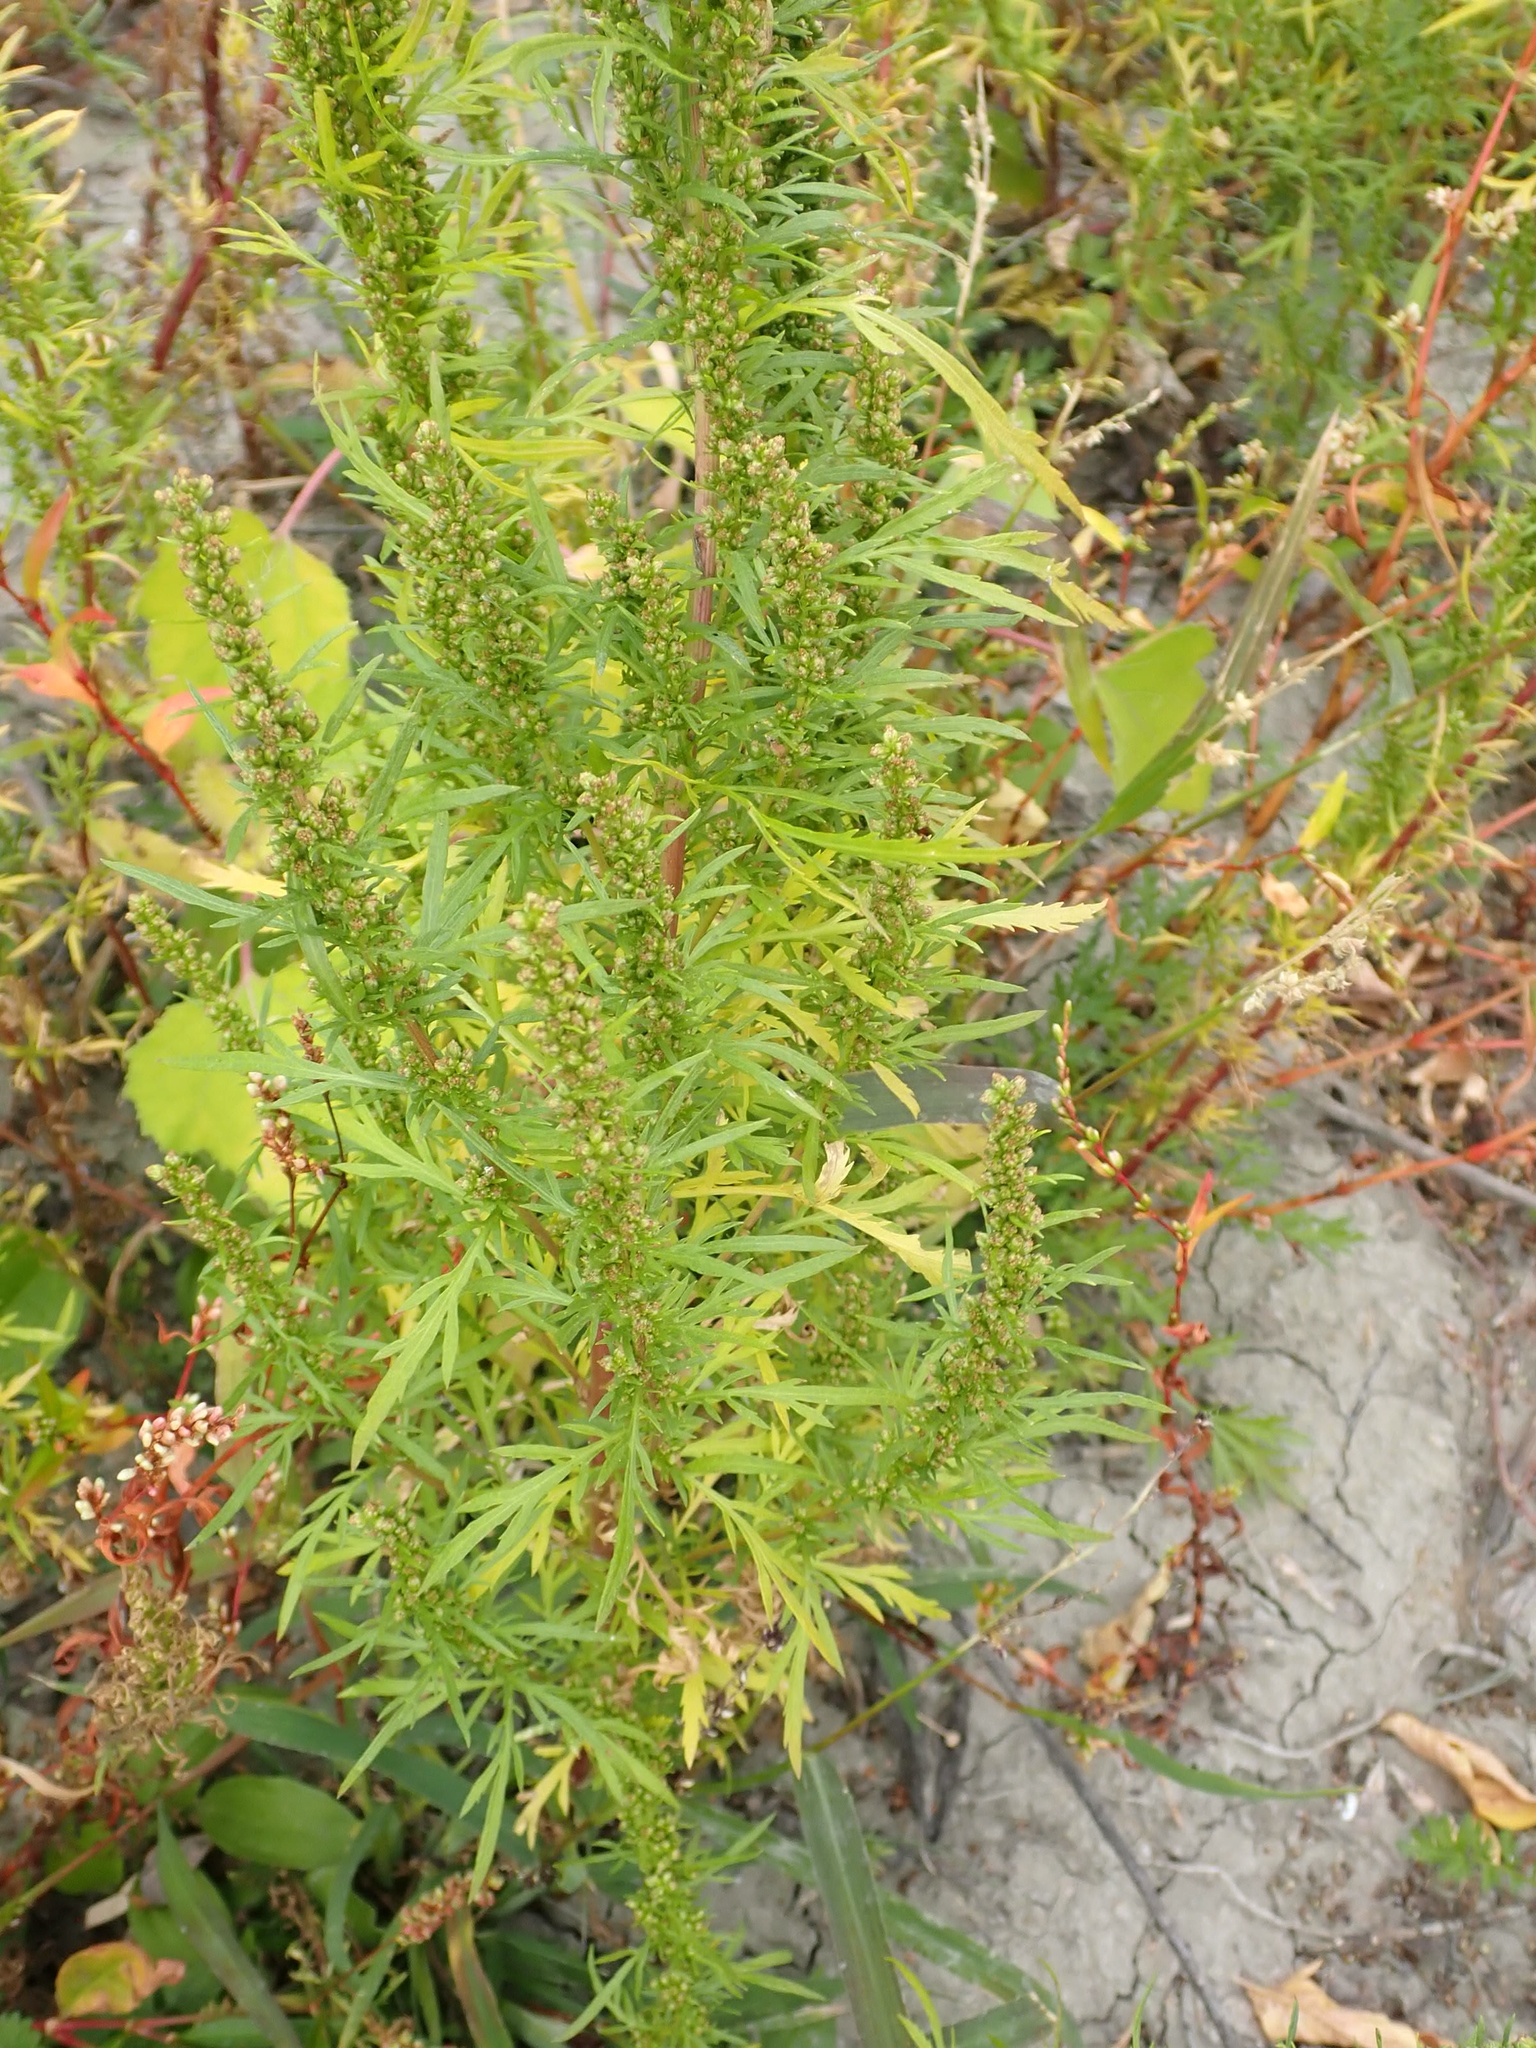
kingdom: Plantae
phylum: Tracheophyta
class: Magnoliopsida
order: Asterales
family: Asteraceae
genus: Artemisia
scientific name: Artemisia biennis
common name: Biennial wormwood
